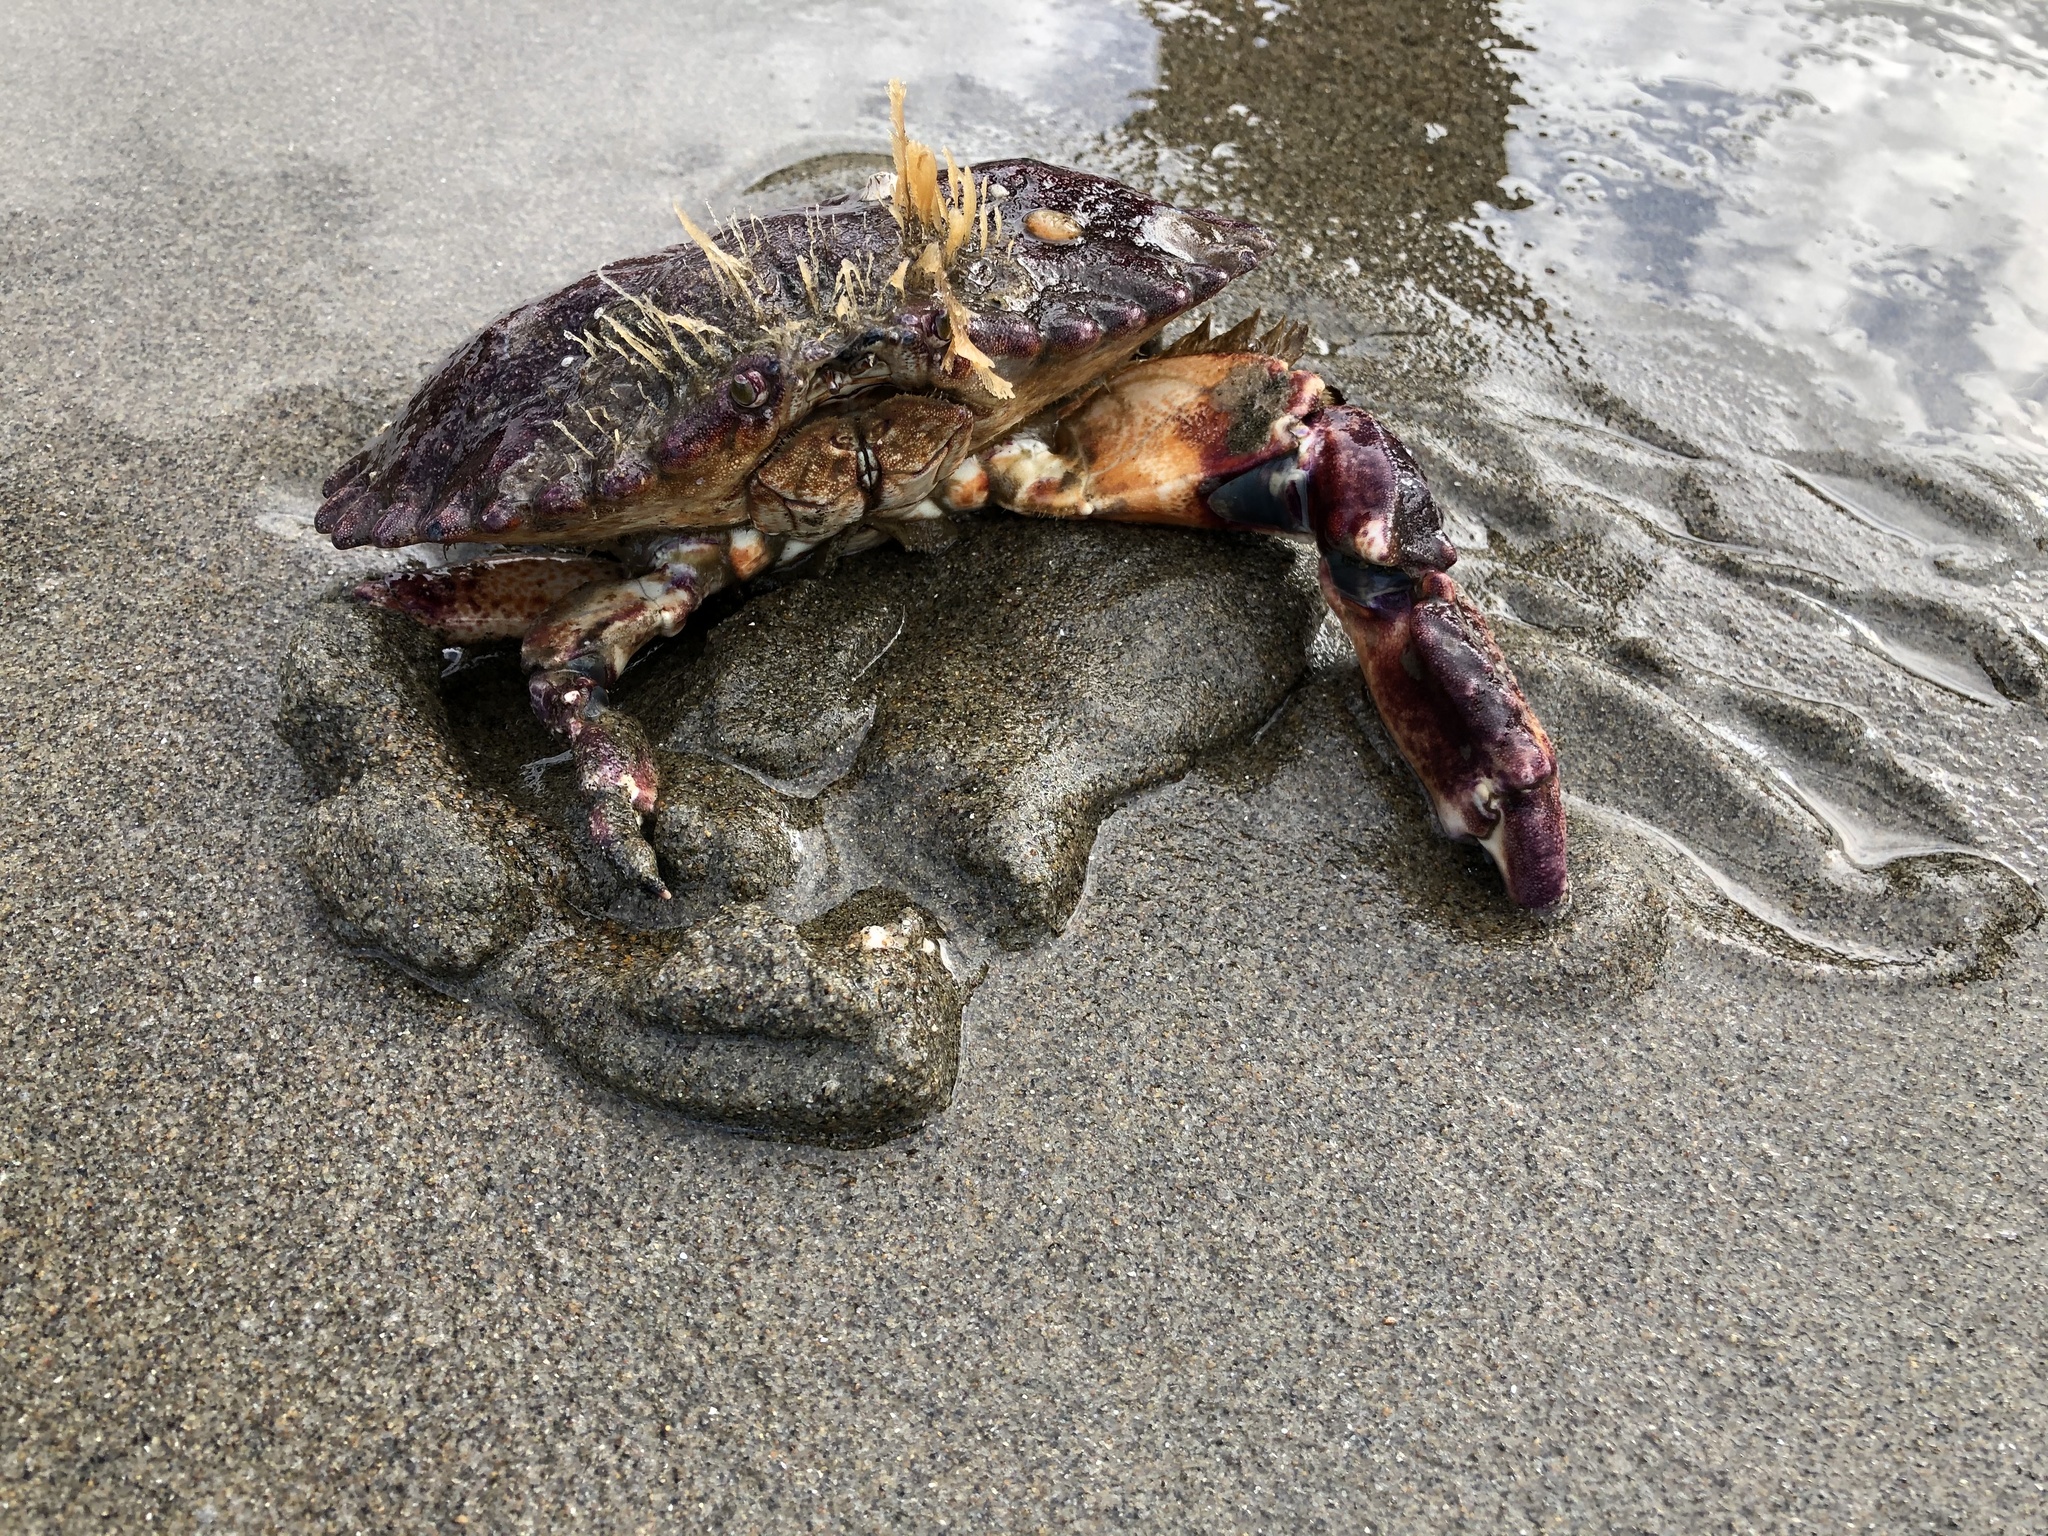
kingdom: Animalia
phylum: Arthropoda
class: Malacostraca
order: Decapoda
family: Cancridae
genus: Cancer
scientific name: Cancer productus
